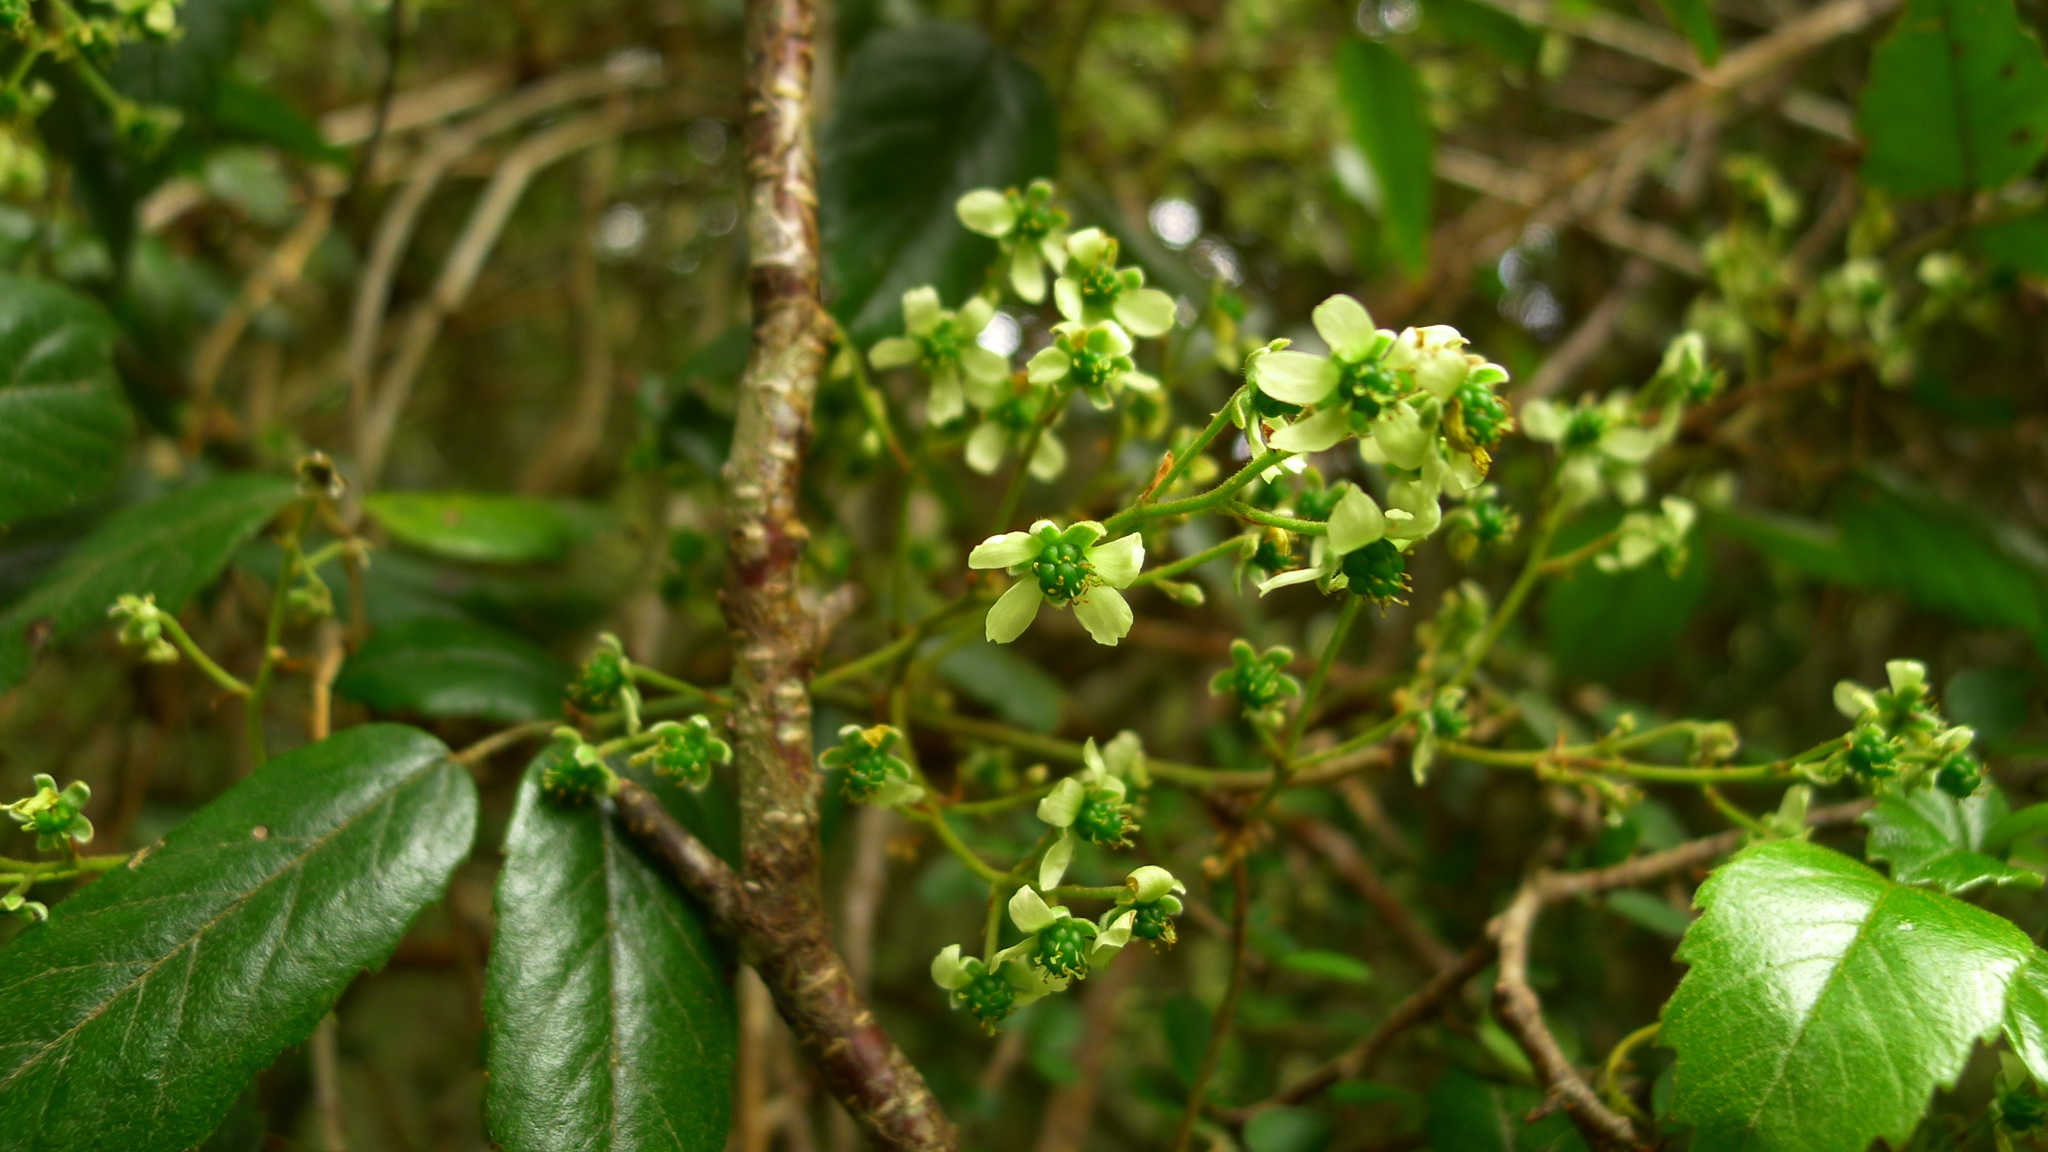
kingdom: Plantae
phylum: Tracheophyta
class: Magnoliopsida
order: Rosales
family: Rosaceae
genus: Rubus
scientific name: Rubus schmidelioides
